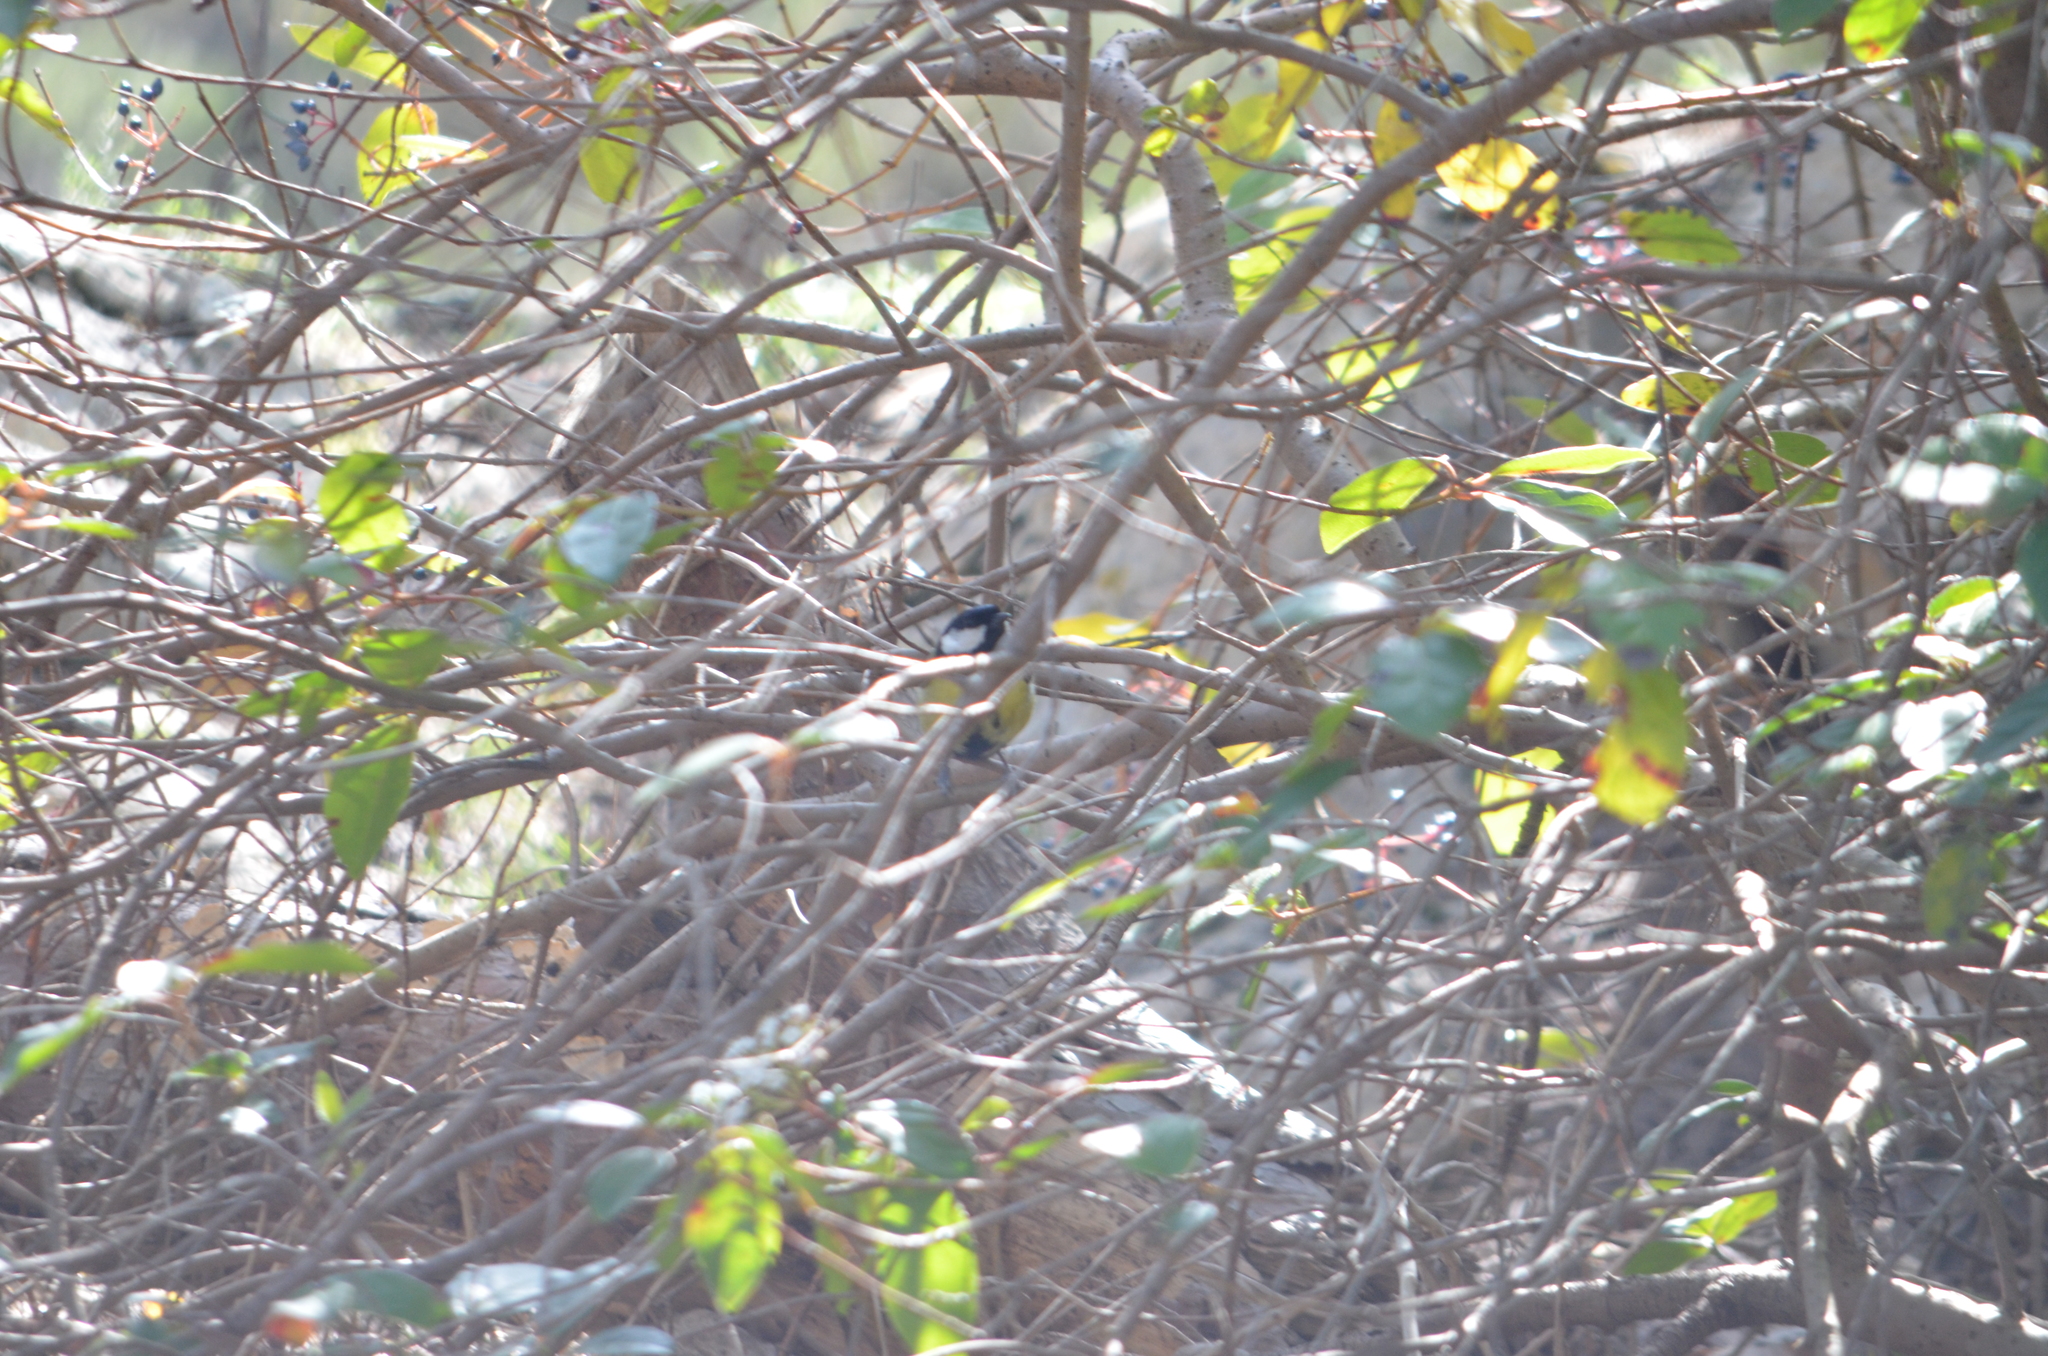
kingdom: Animalia
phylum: Chordata
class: Aves
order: Passeriformes
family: Paridae
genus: Parus
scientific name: Parus major
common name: Great tit
